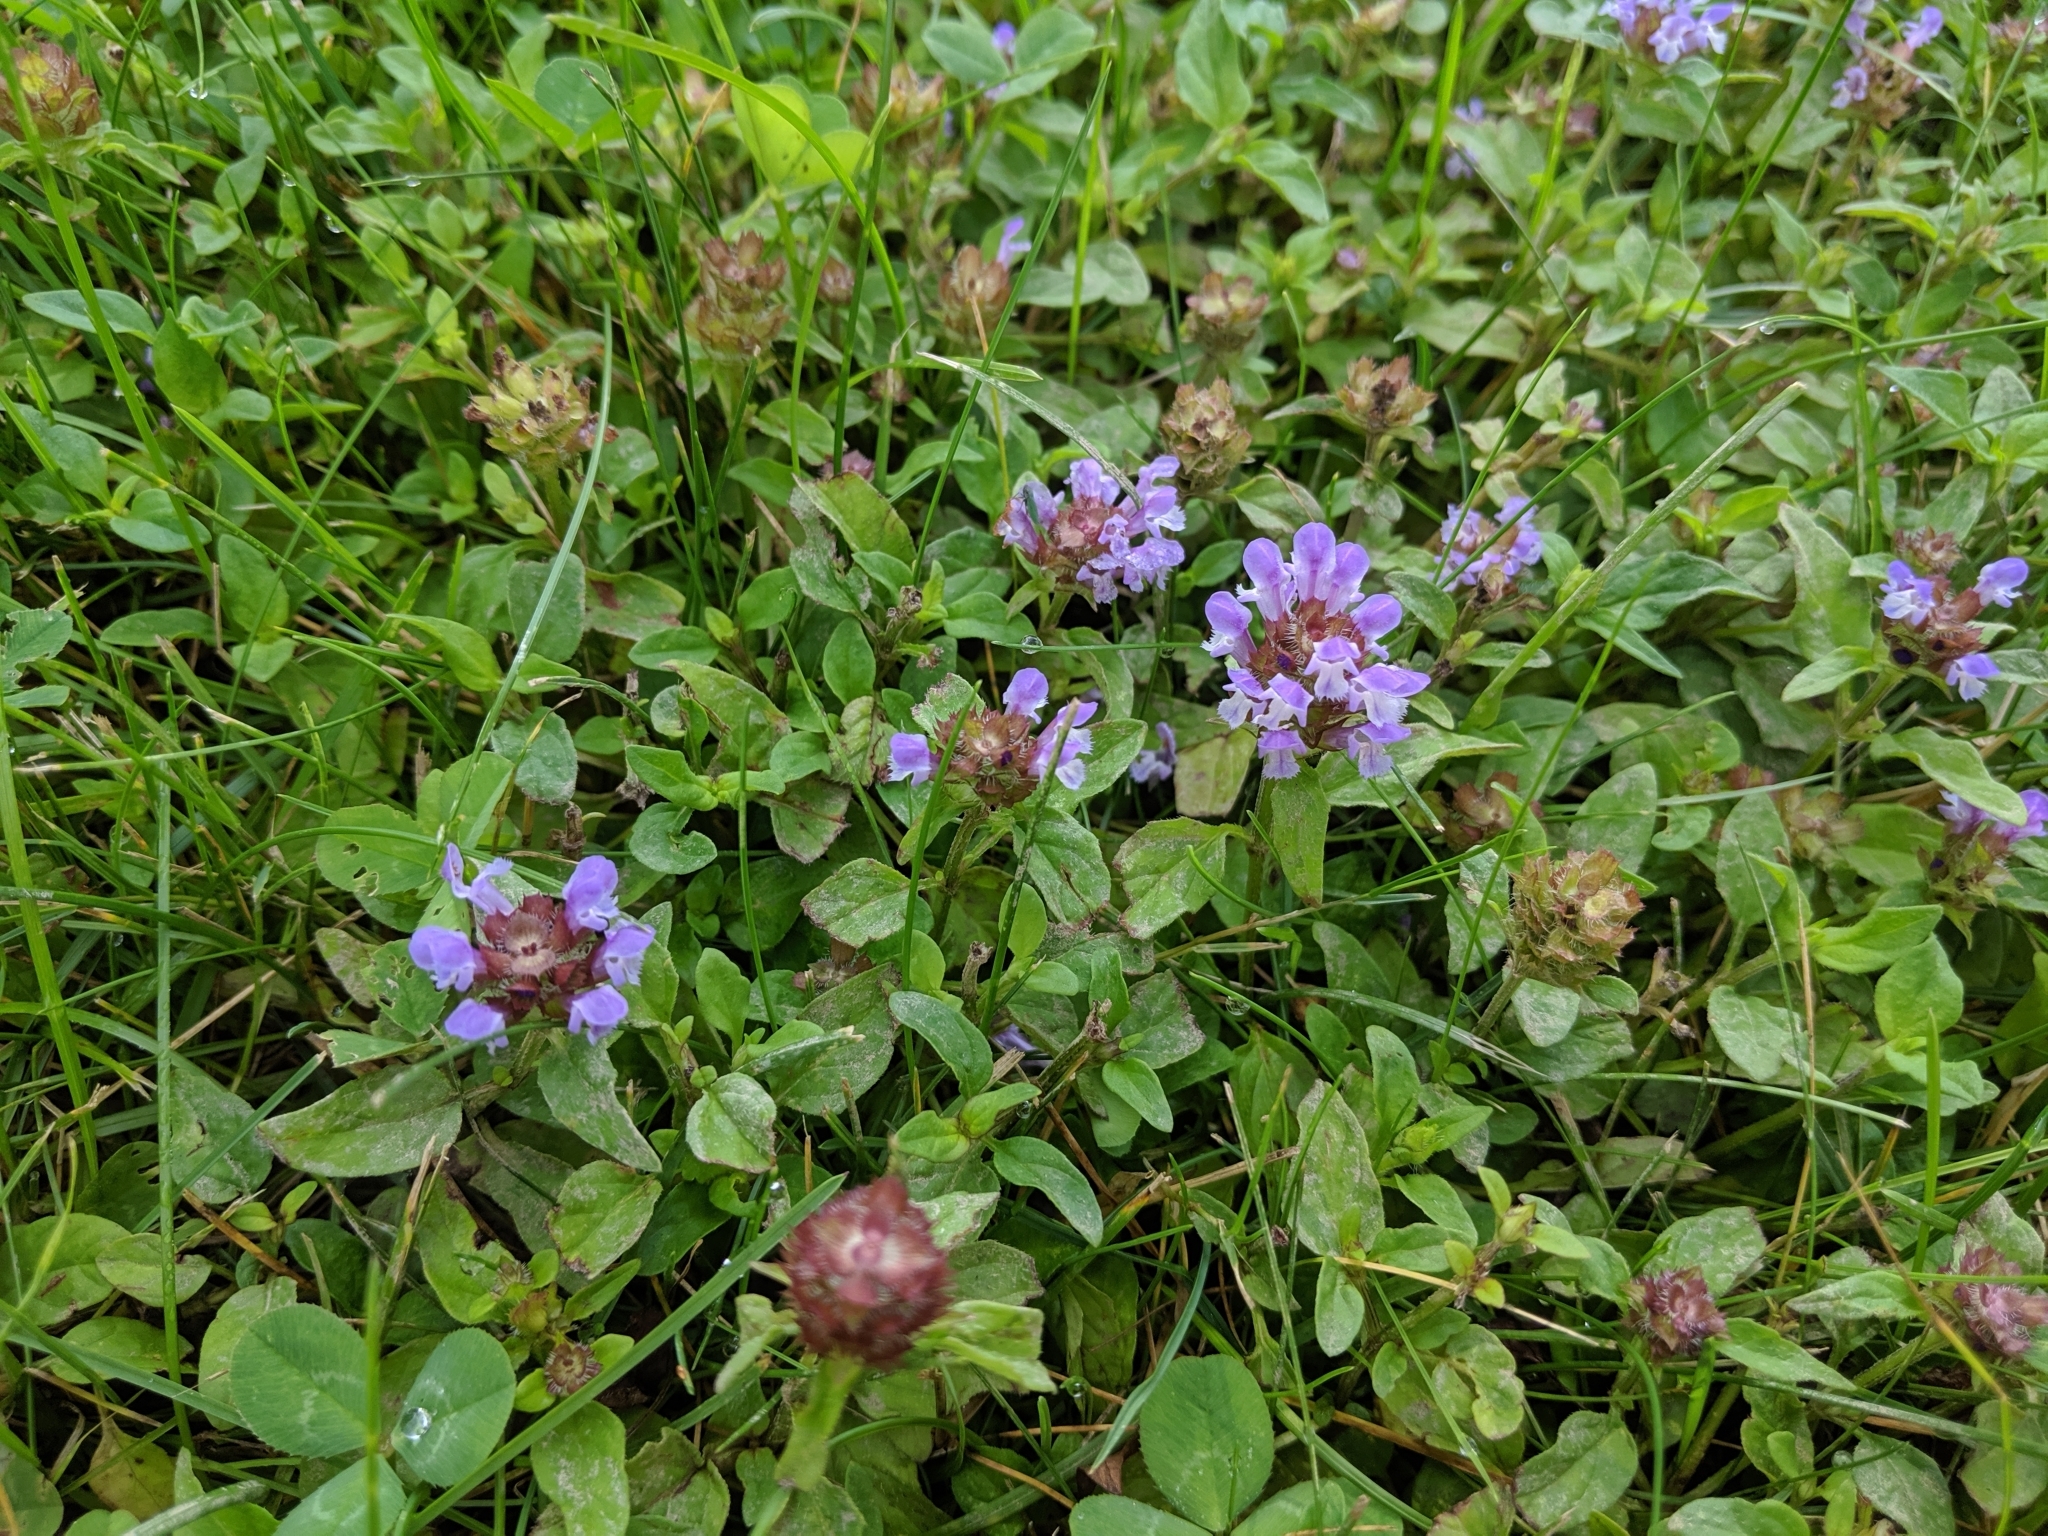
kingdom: Plantae
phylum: Tracheophyta
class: Magnoliopsida
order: Lamiales
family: Lamiaceae
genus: Prunella
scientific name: Prunella vulgaris
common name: Heal-all
